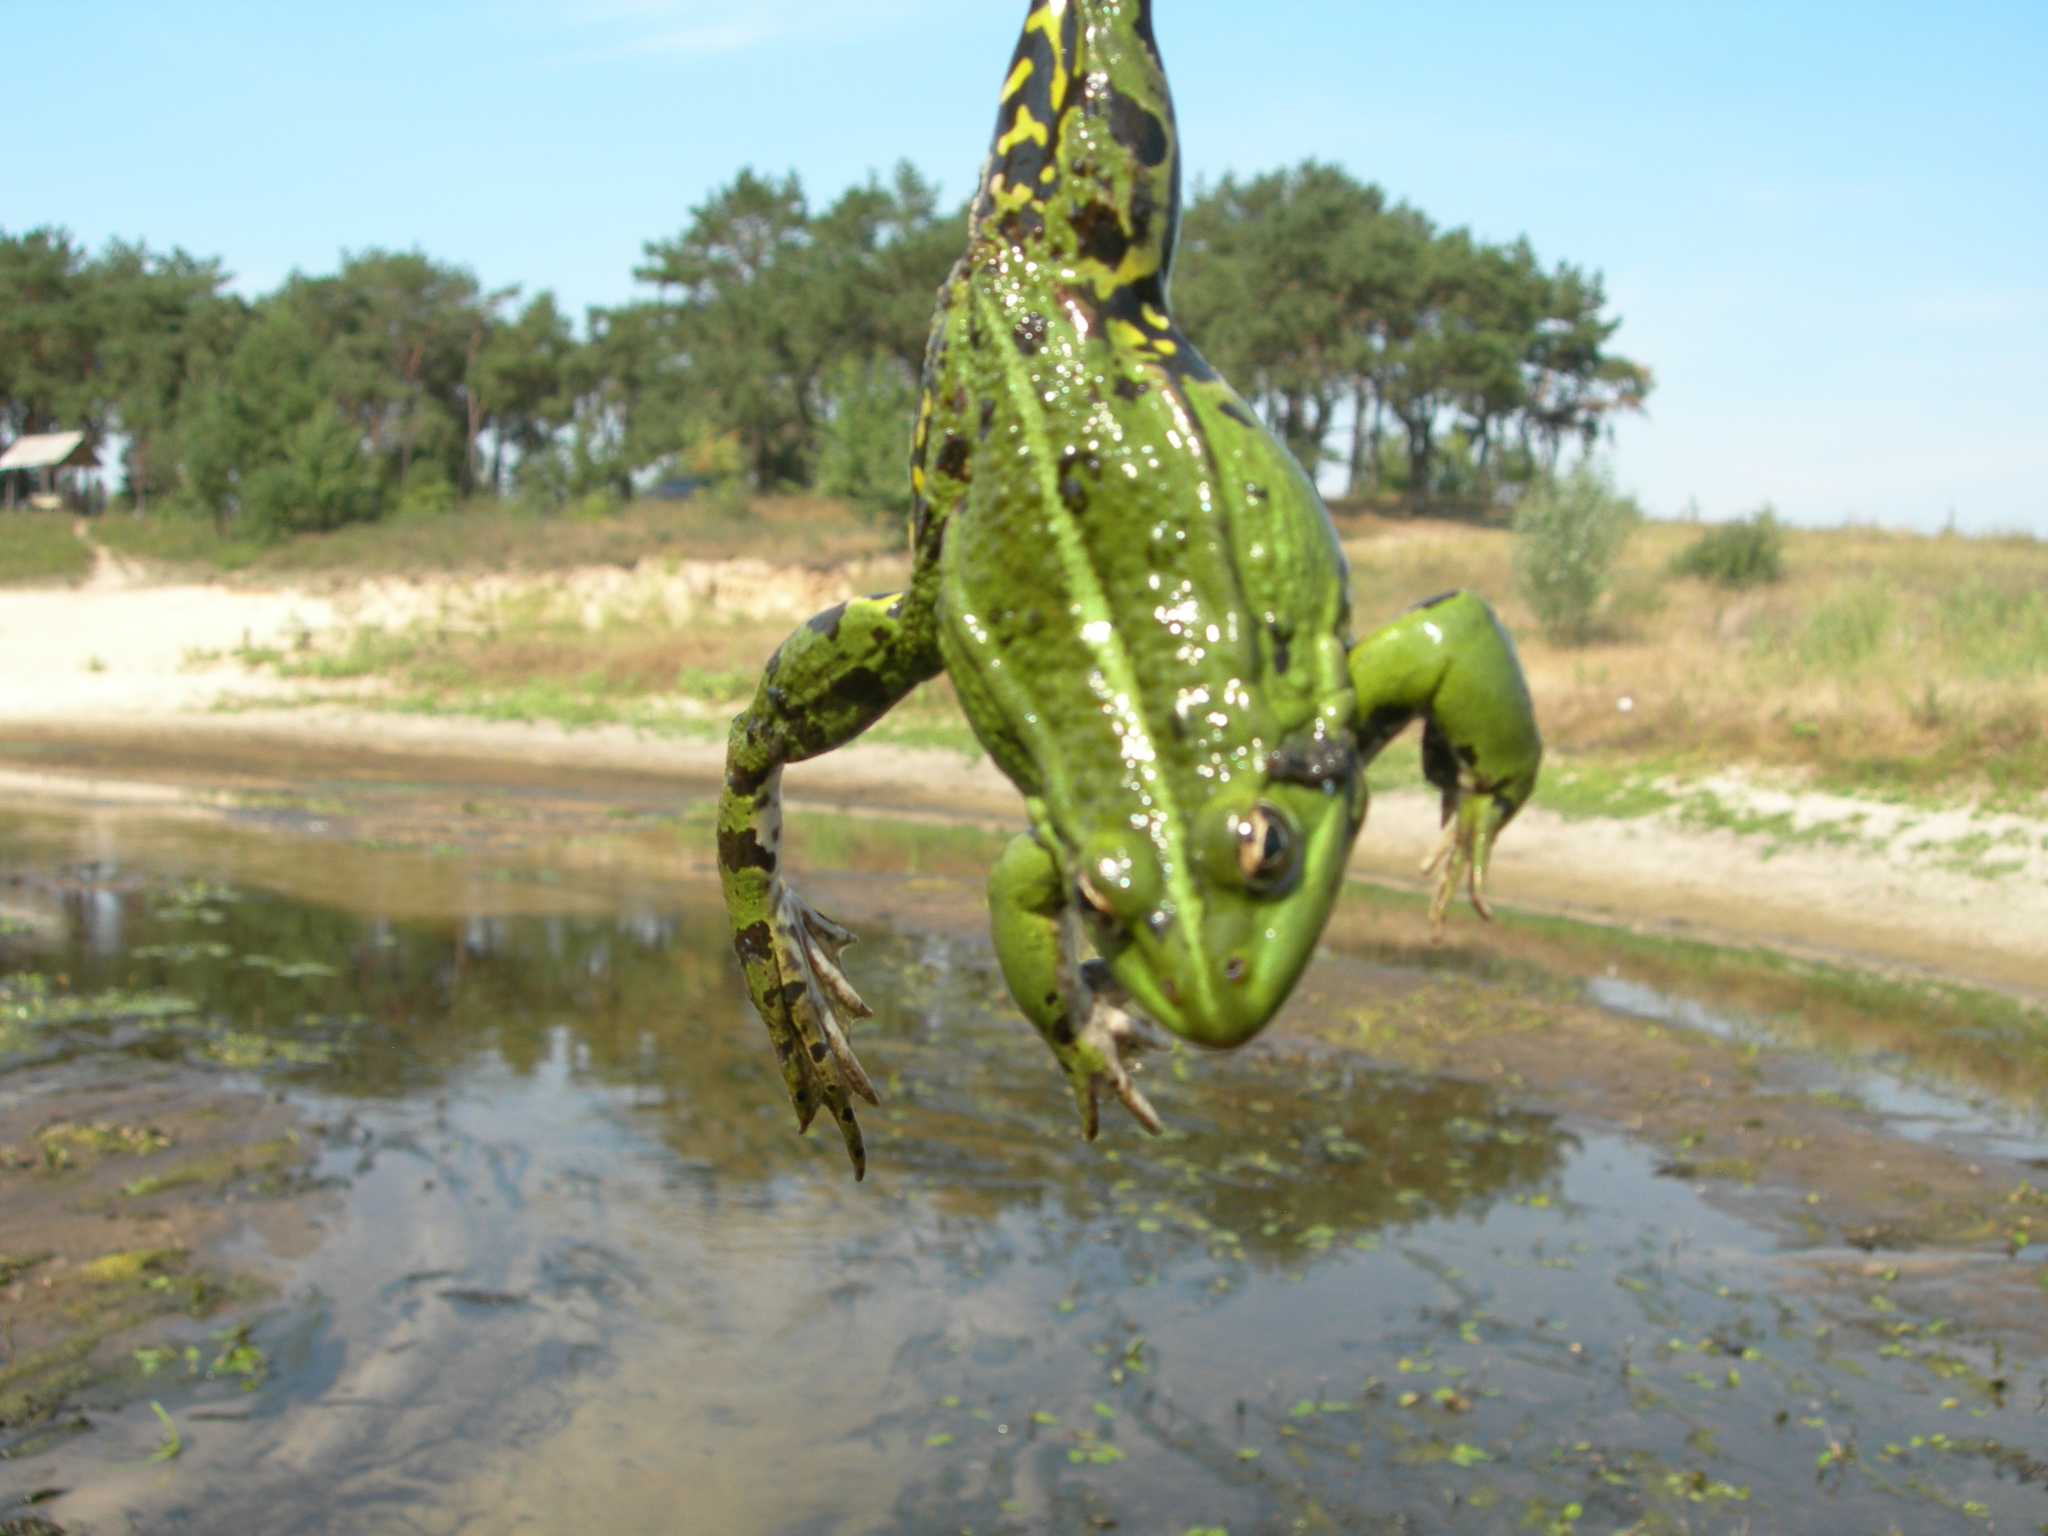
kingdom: Animalia
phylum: Chordata
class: Amphibia
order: Anura
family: Ranidae
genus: Pelophylax
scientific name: Pelophylax ridibundus
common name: Marsh frog
